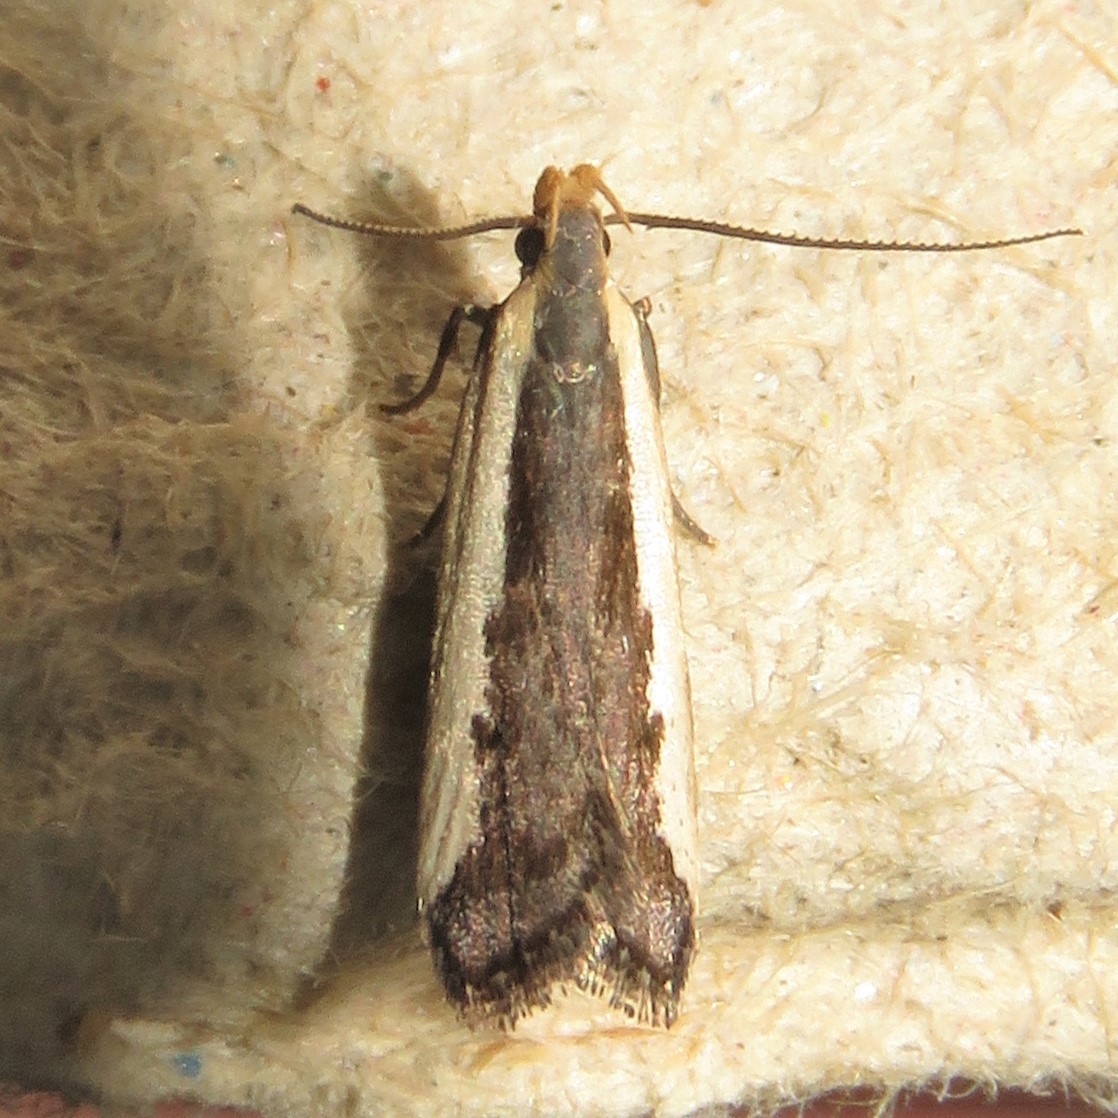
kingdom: Animalia
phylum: Arthropoda
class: Insecta
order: Lepidoptera
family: Gelechiidae
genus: Dichomeris
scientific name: Dichomeris isa
